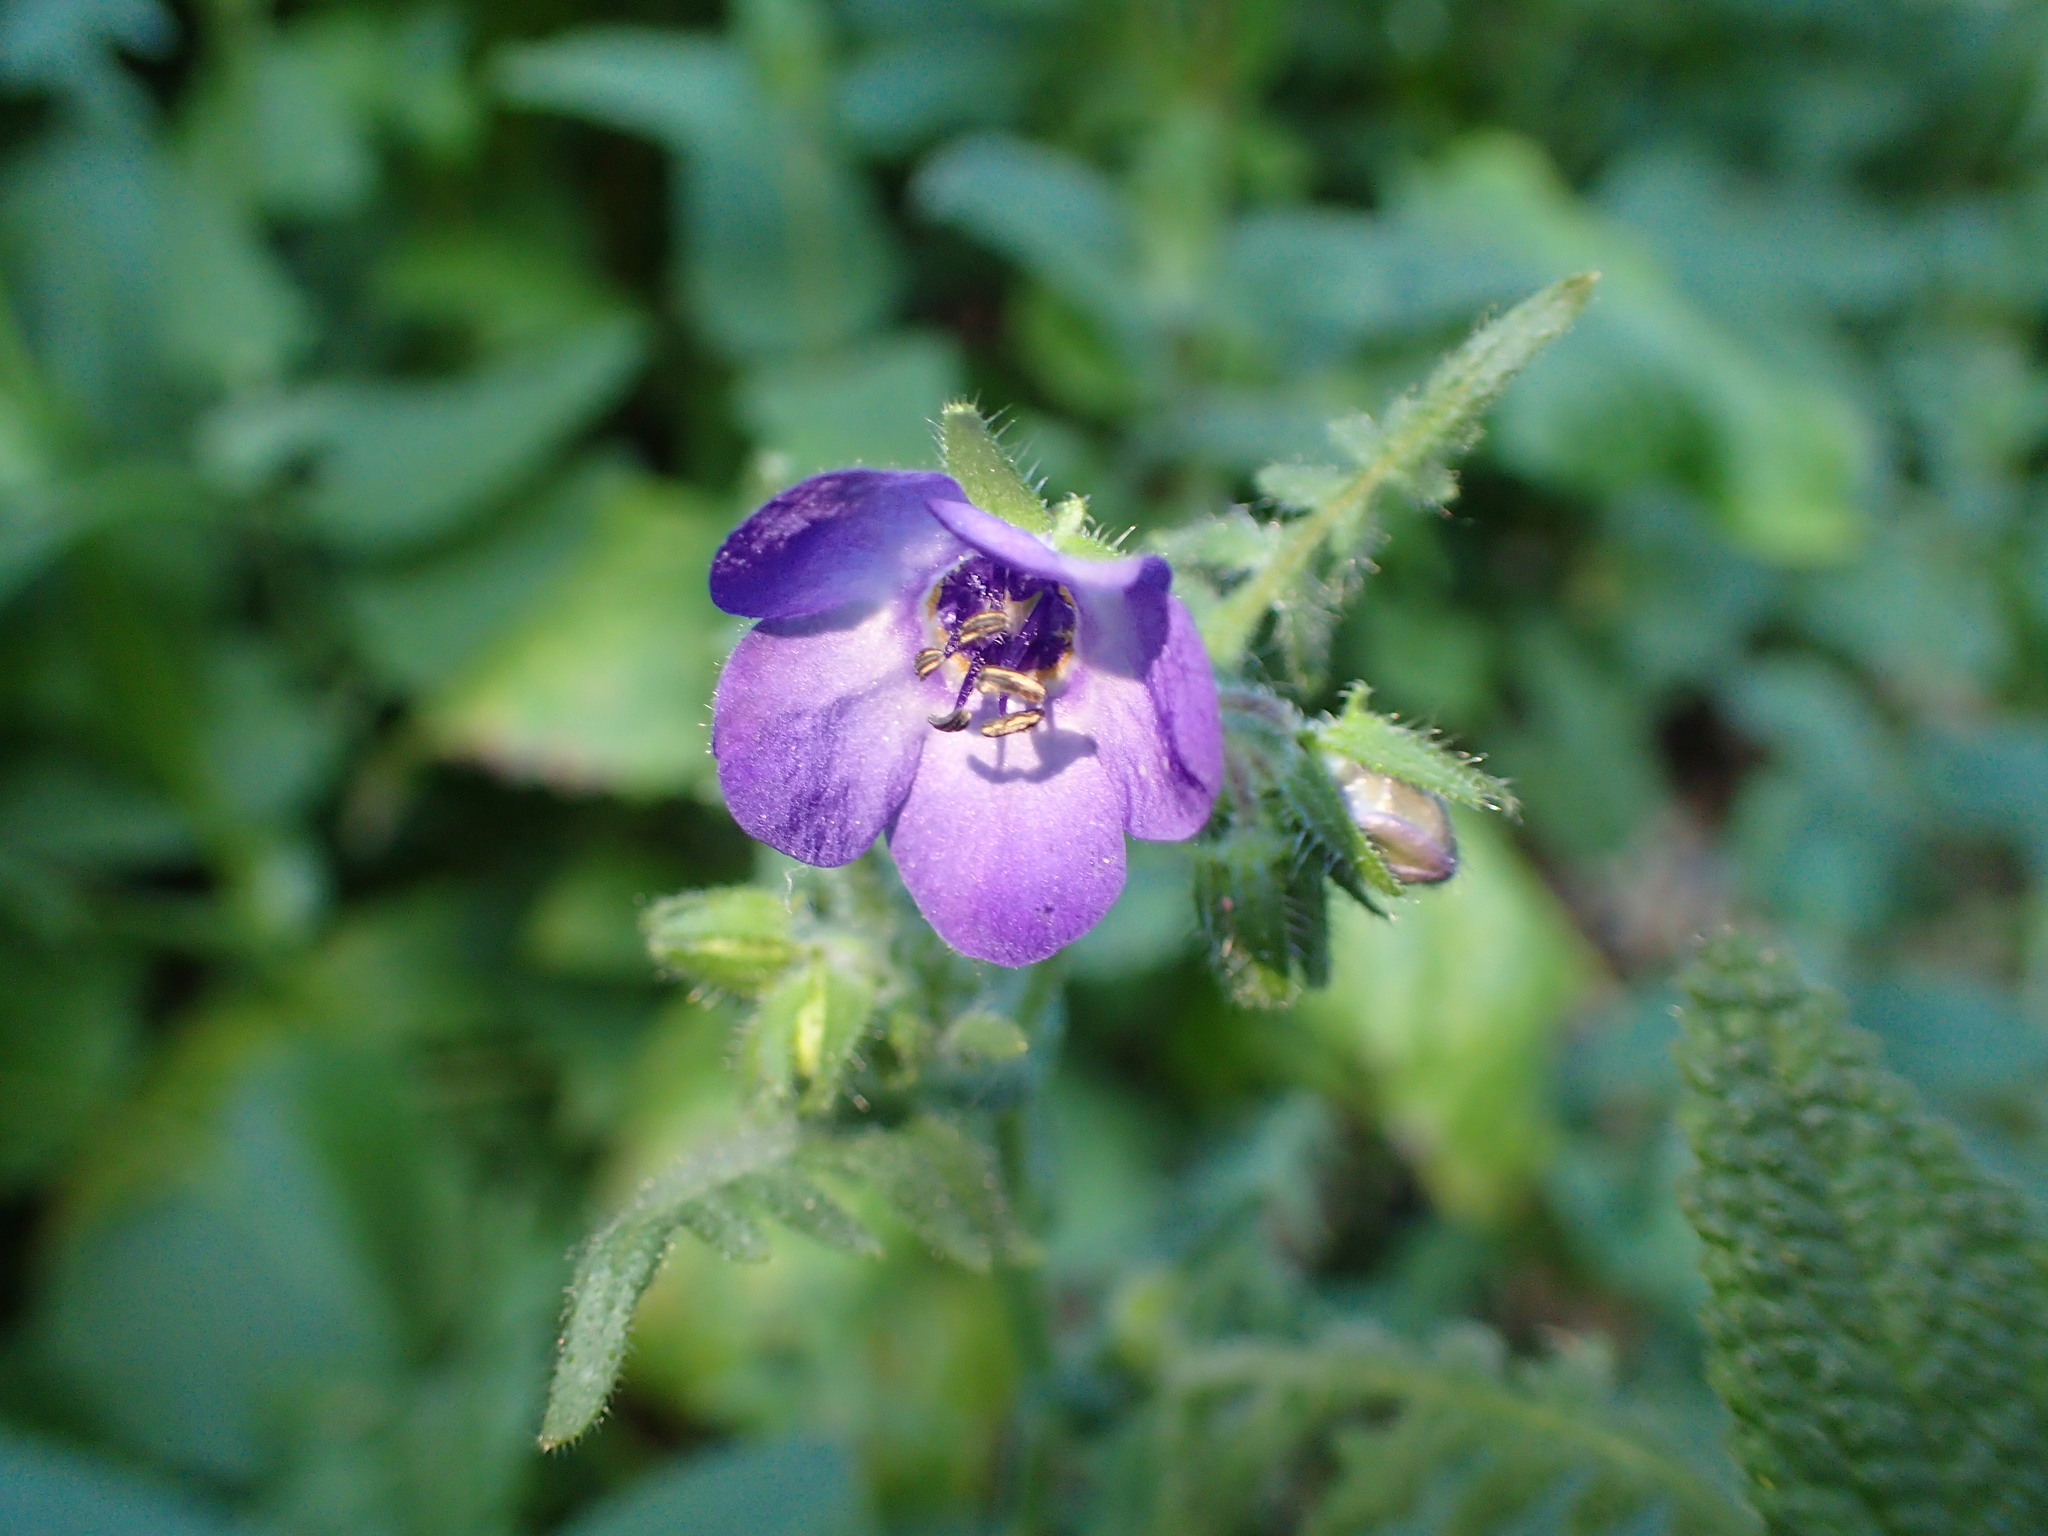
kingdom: Plantae
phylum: Tracheophyta
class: Magnoliopsida
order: Boraginales
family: Hydrophyllaceae
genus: Pholistoma
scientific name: Pholistoma auritum
